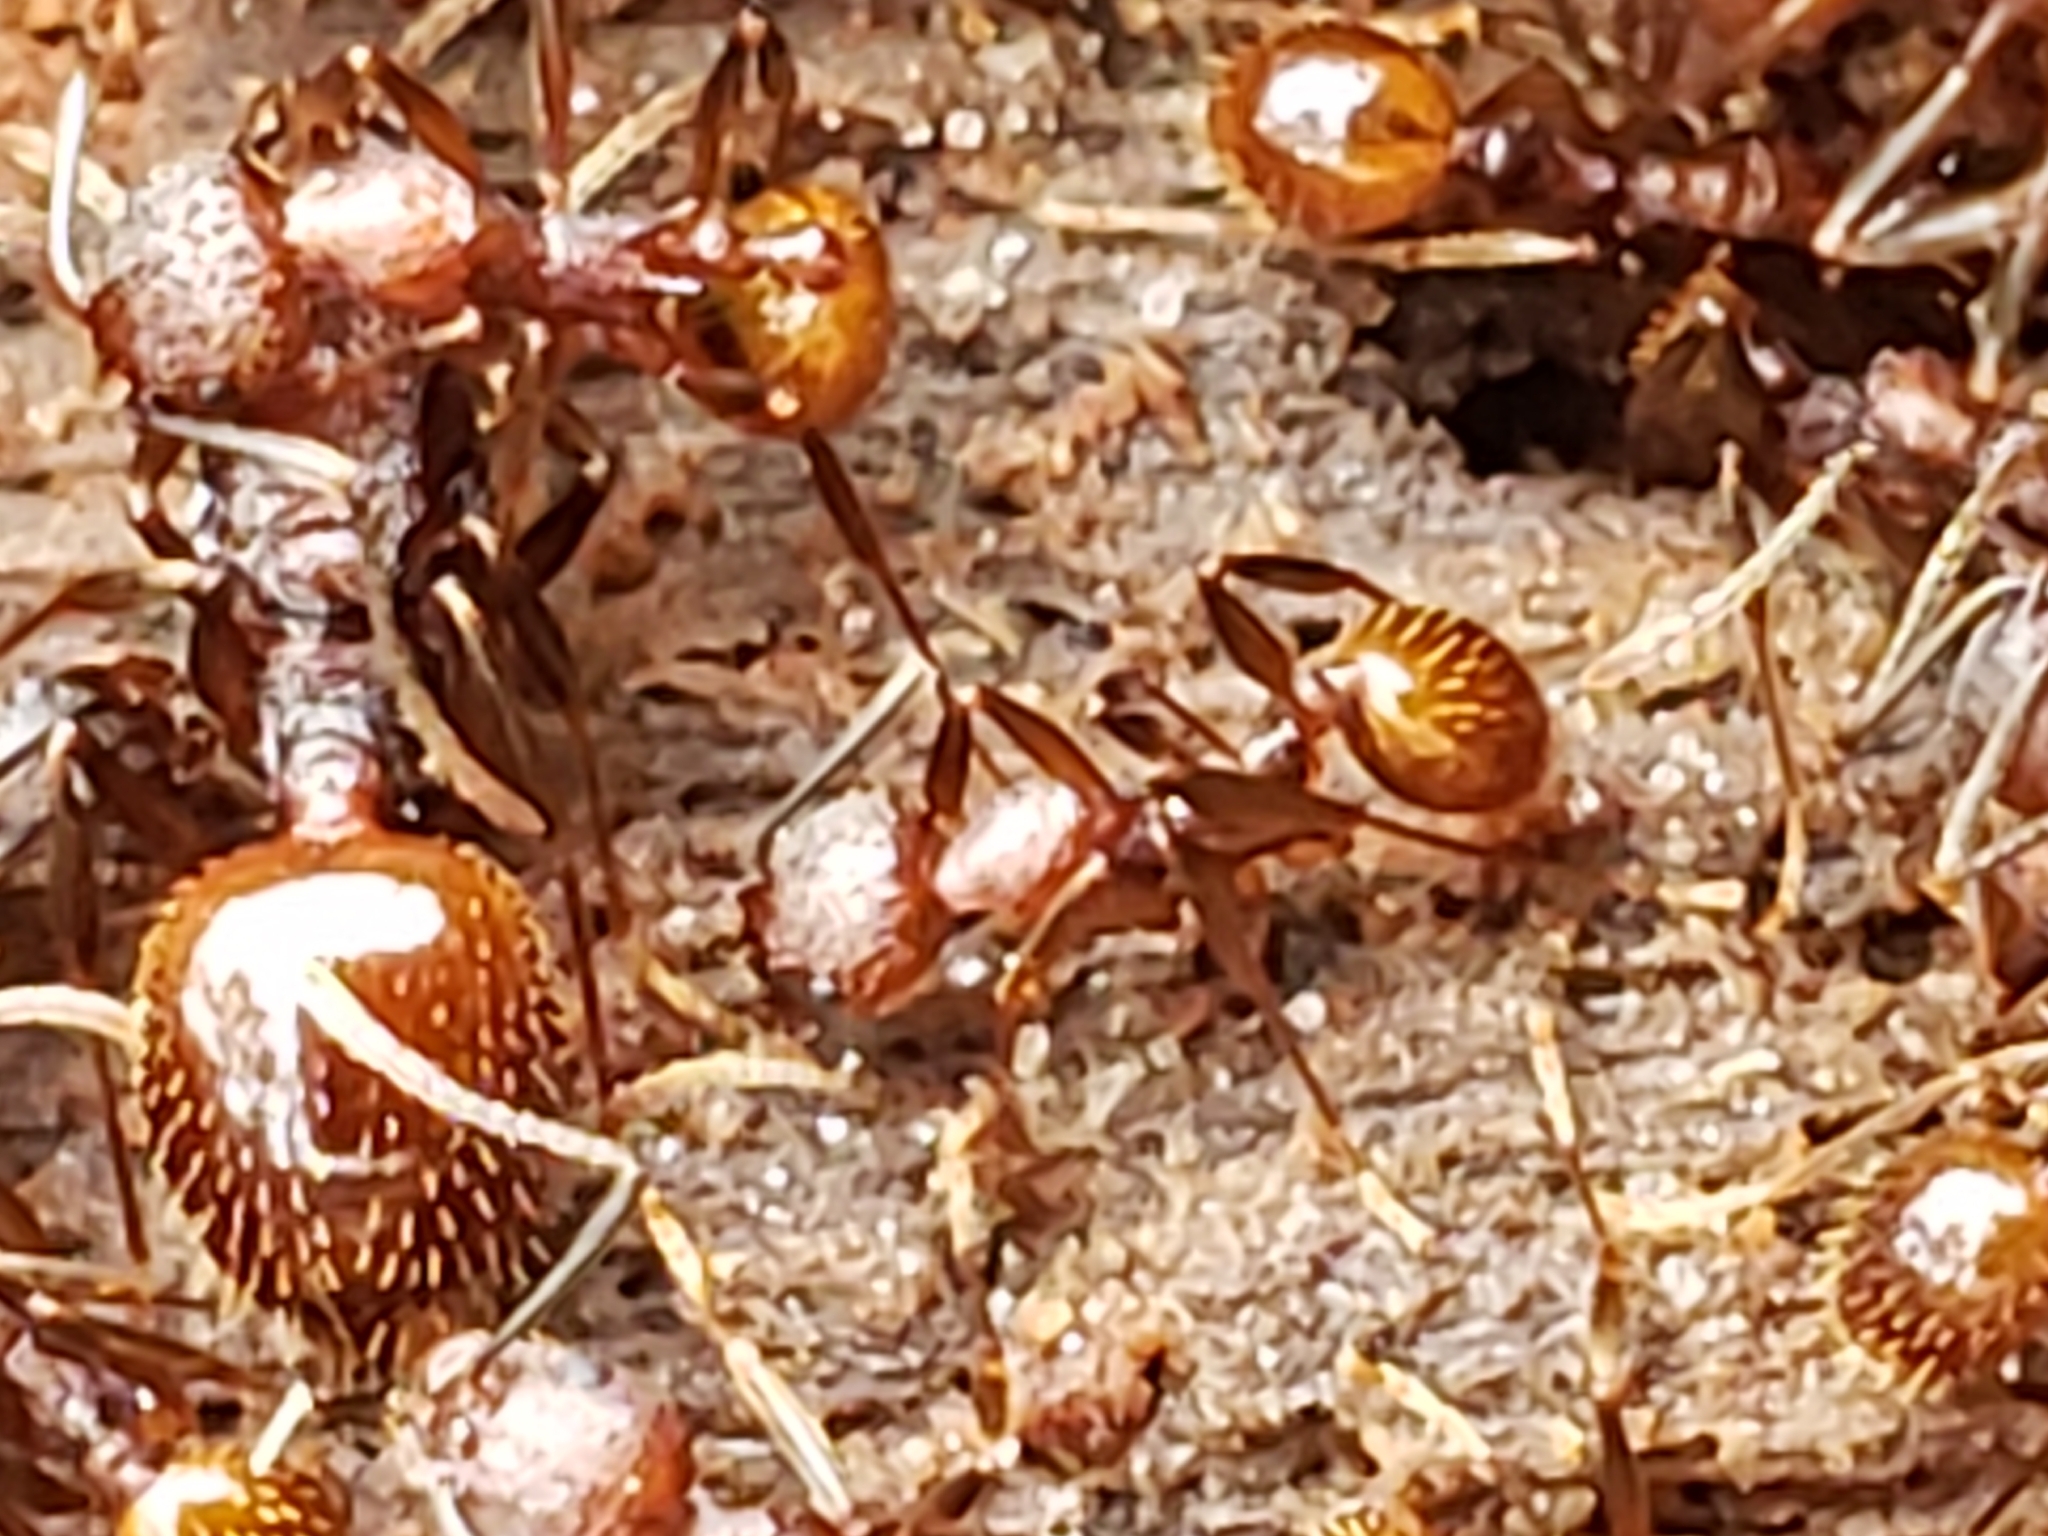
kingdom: Animalia
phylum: Arthropoda
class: Insecta
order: Hymenoptera
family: Formicidae
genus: Aphaenogaster
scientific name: Aphaenogaster fulva
